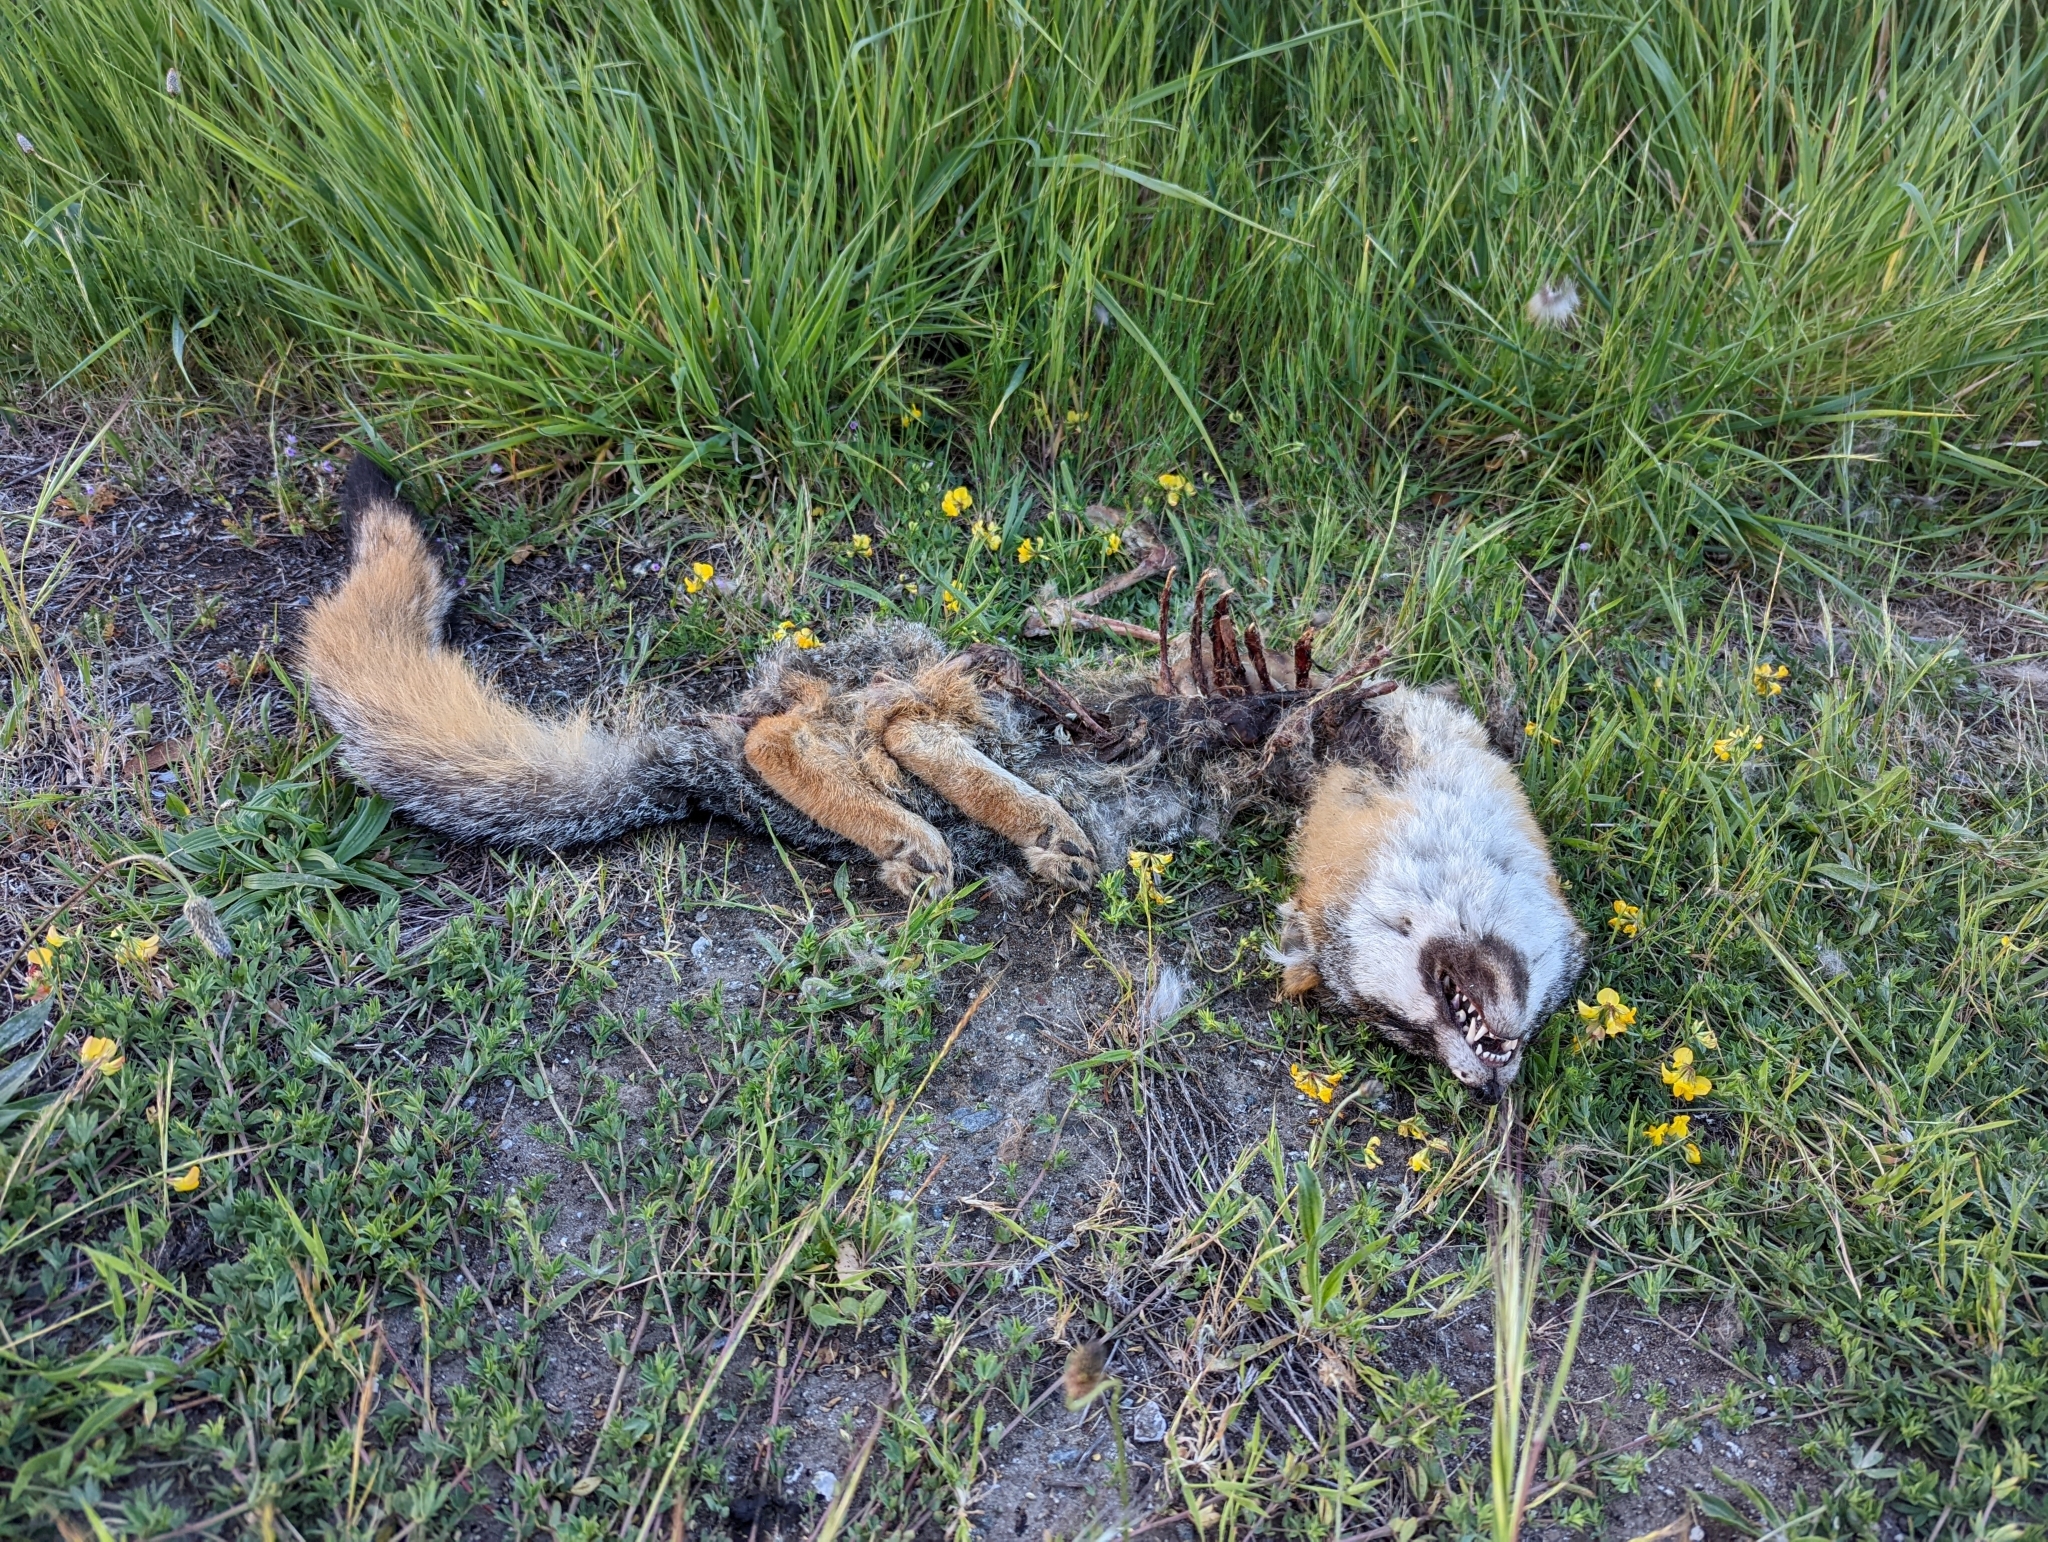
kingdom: Animalia
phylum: Chordata
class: Mammalia
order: Carnivora
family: Canidae
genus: Urocyon
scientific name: Urocyon cinereoargenteus
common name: Gray fox
